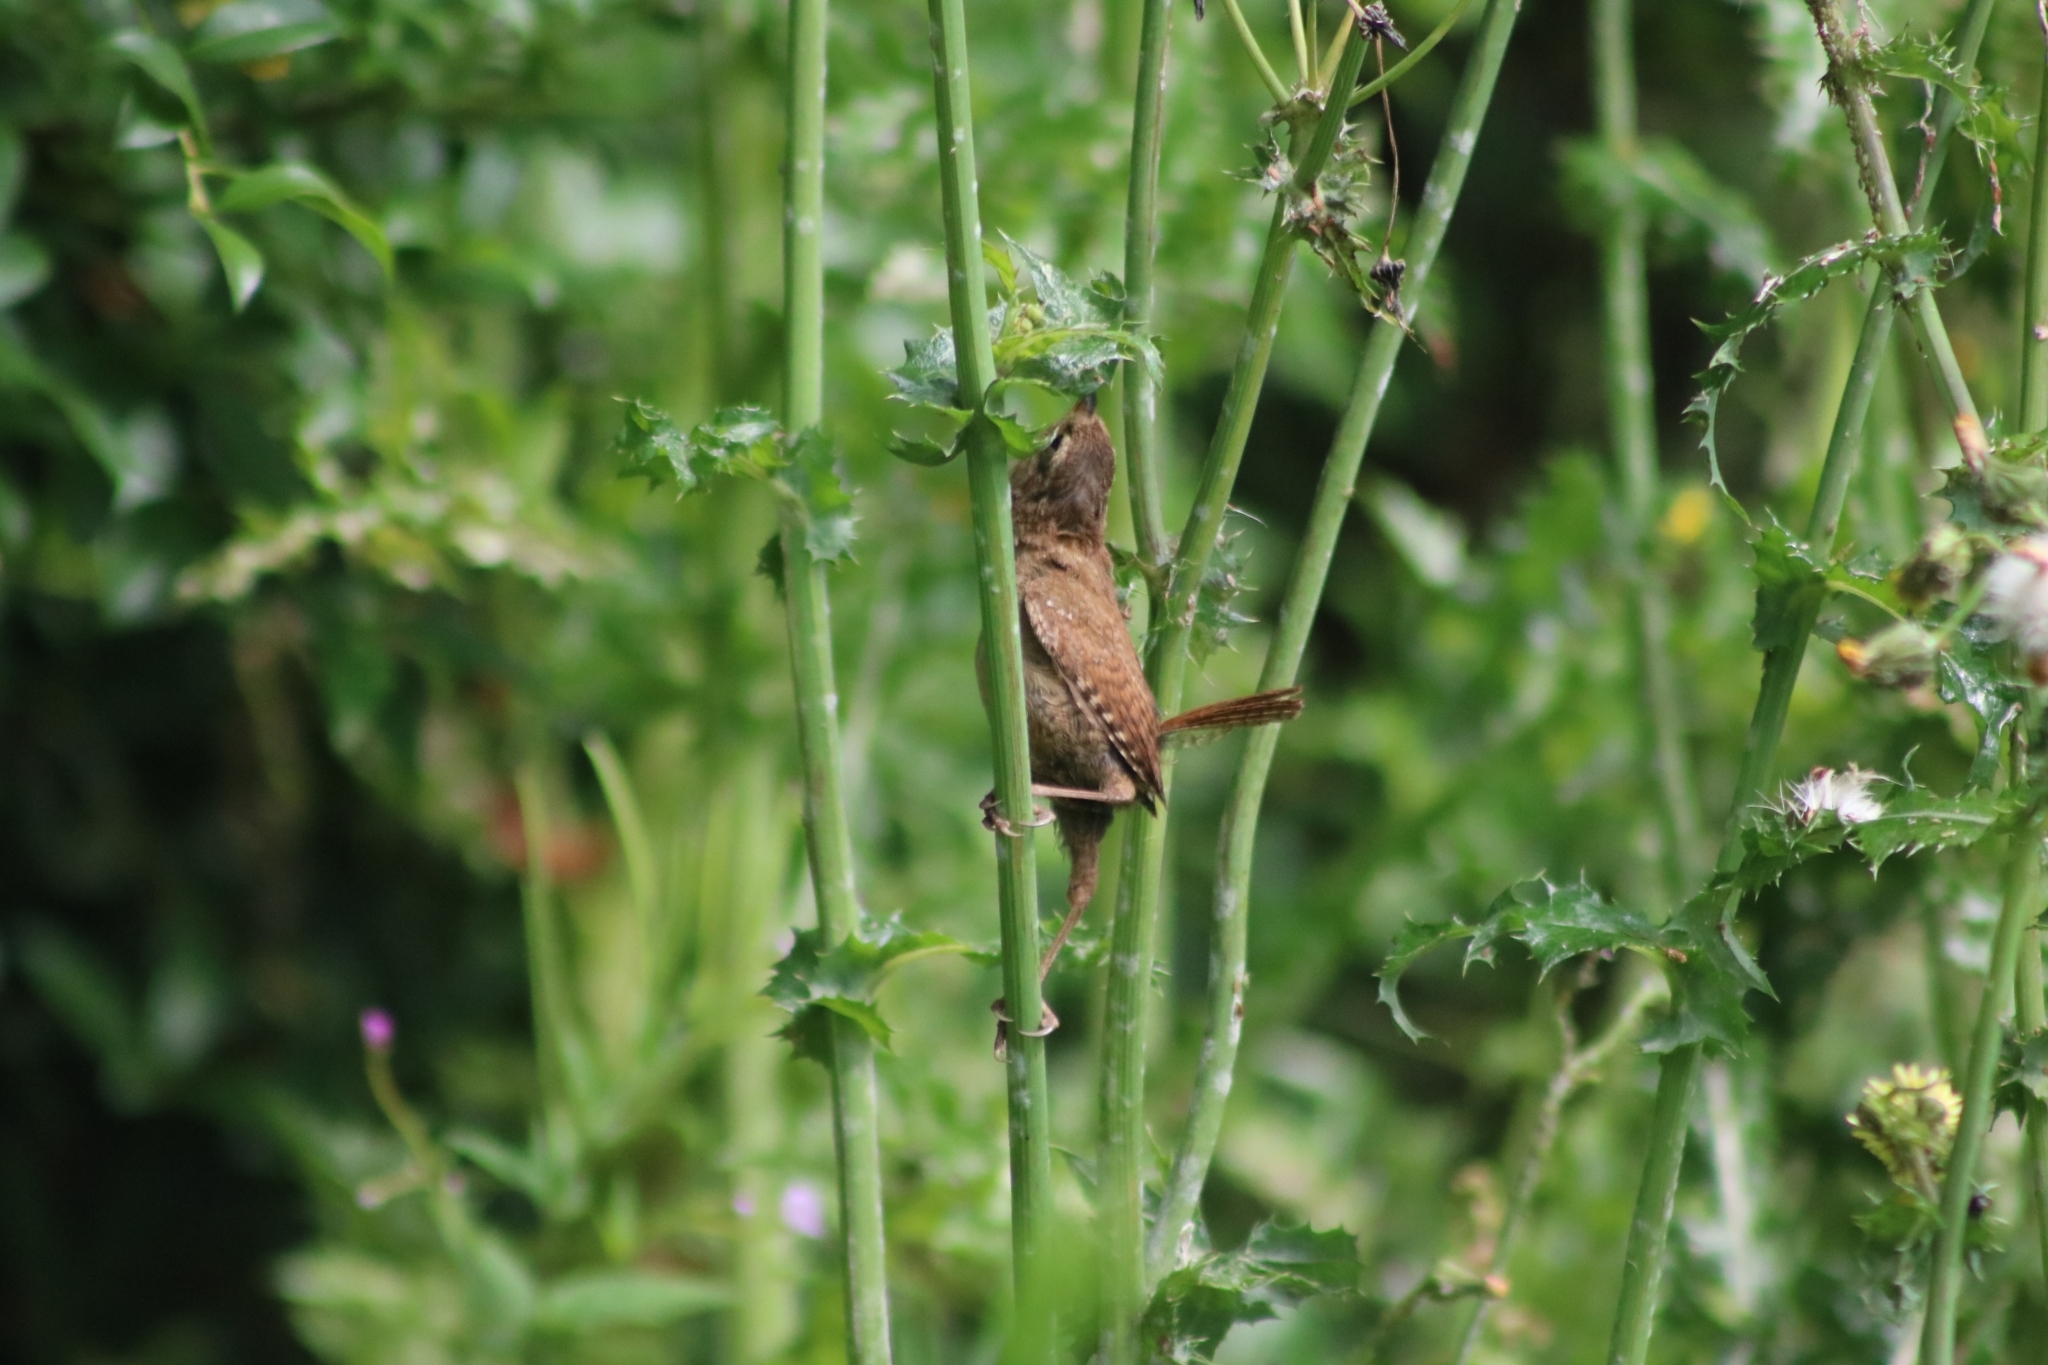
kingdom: Animalia
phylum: Chordata
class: Aves
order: Passeriformes
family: Troglodytidae
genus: Troglodytes
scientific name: Troglodytes troglodytes
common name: Eurasian wren
